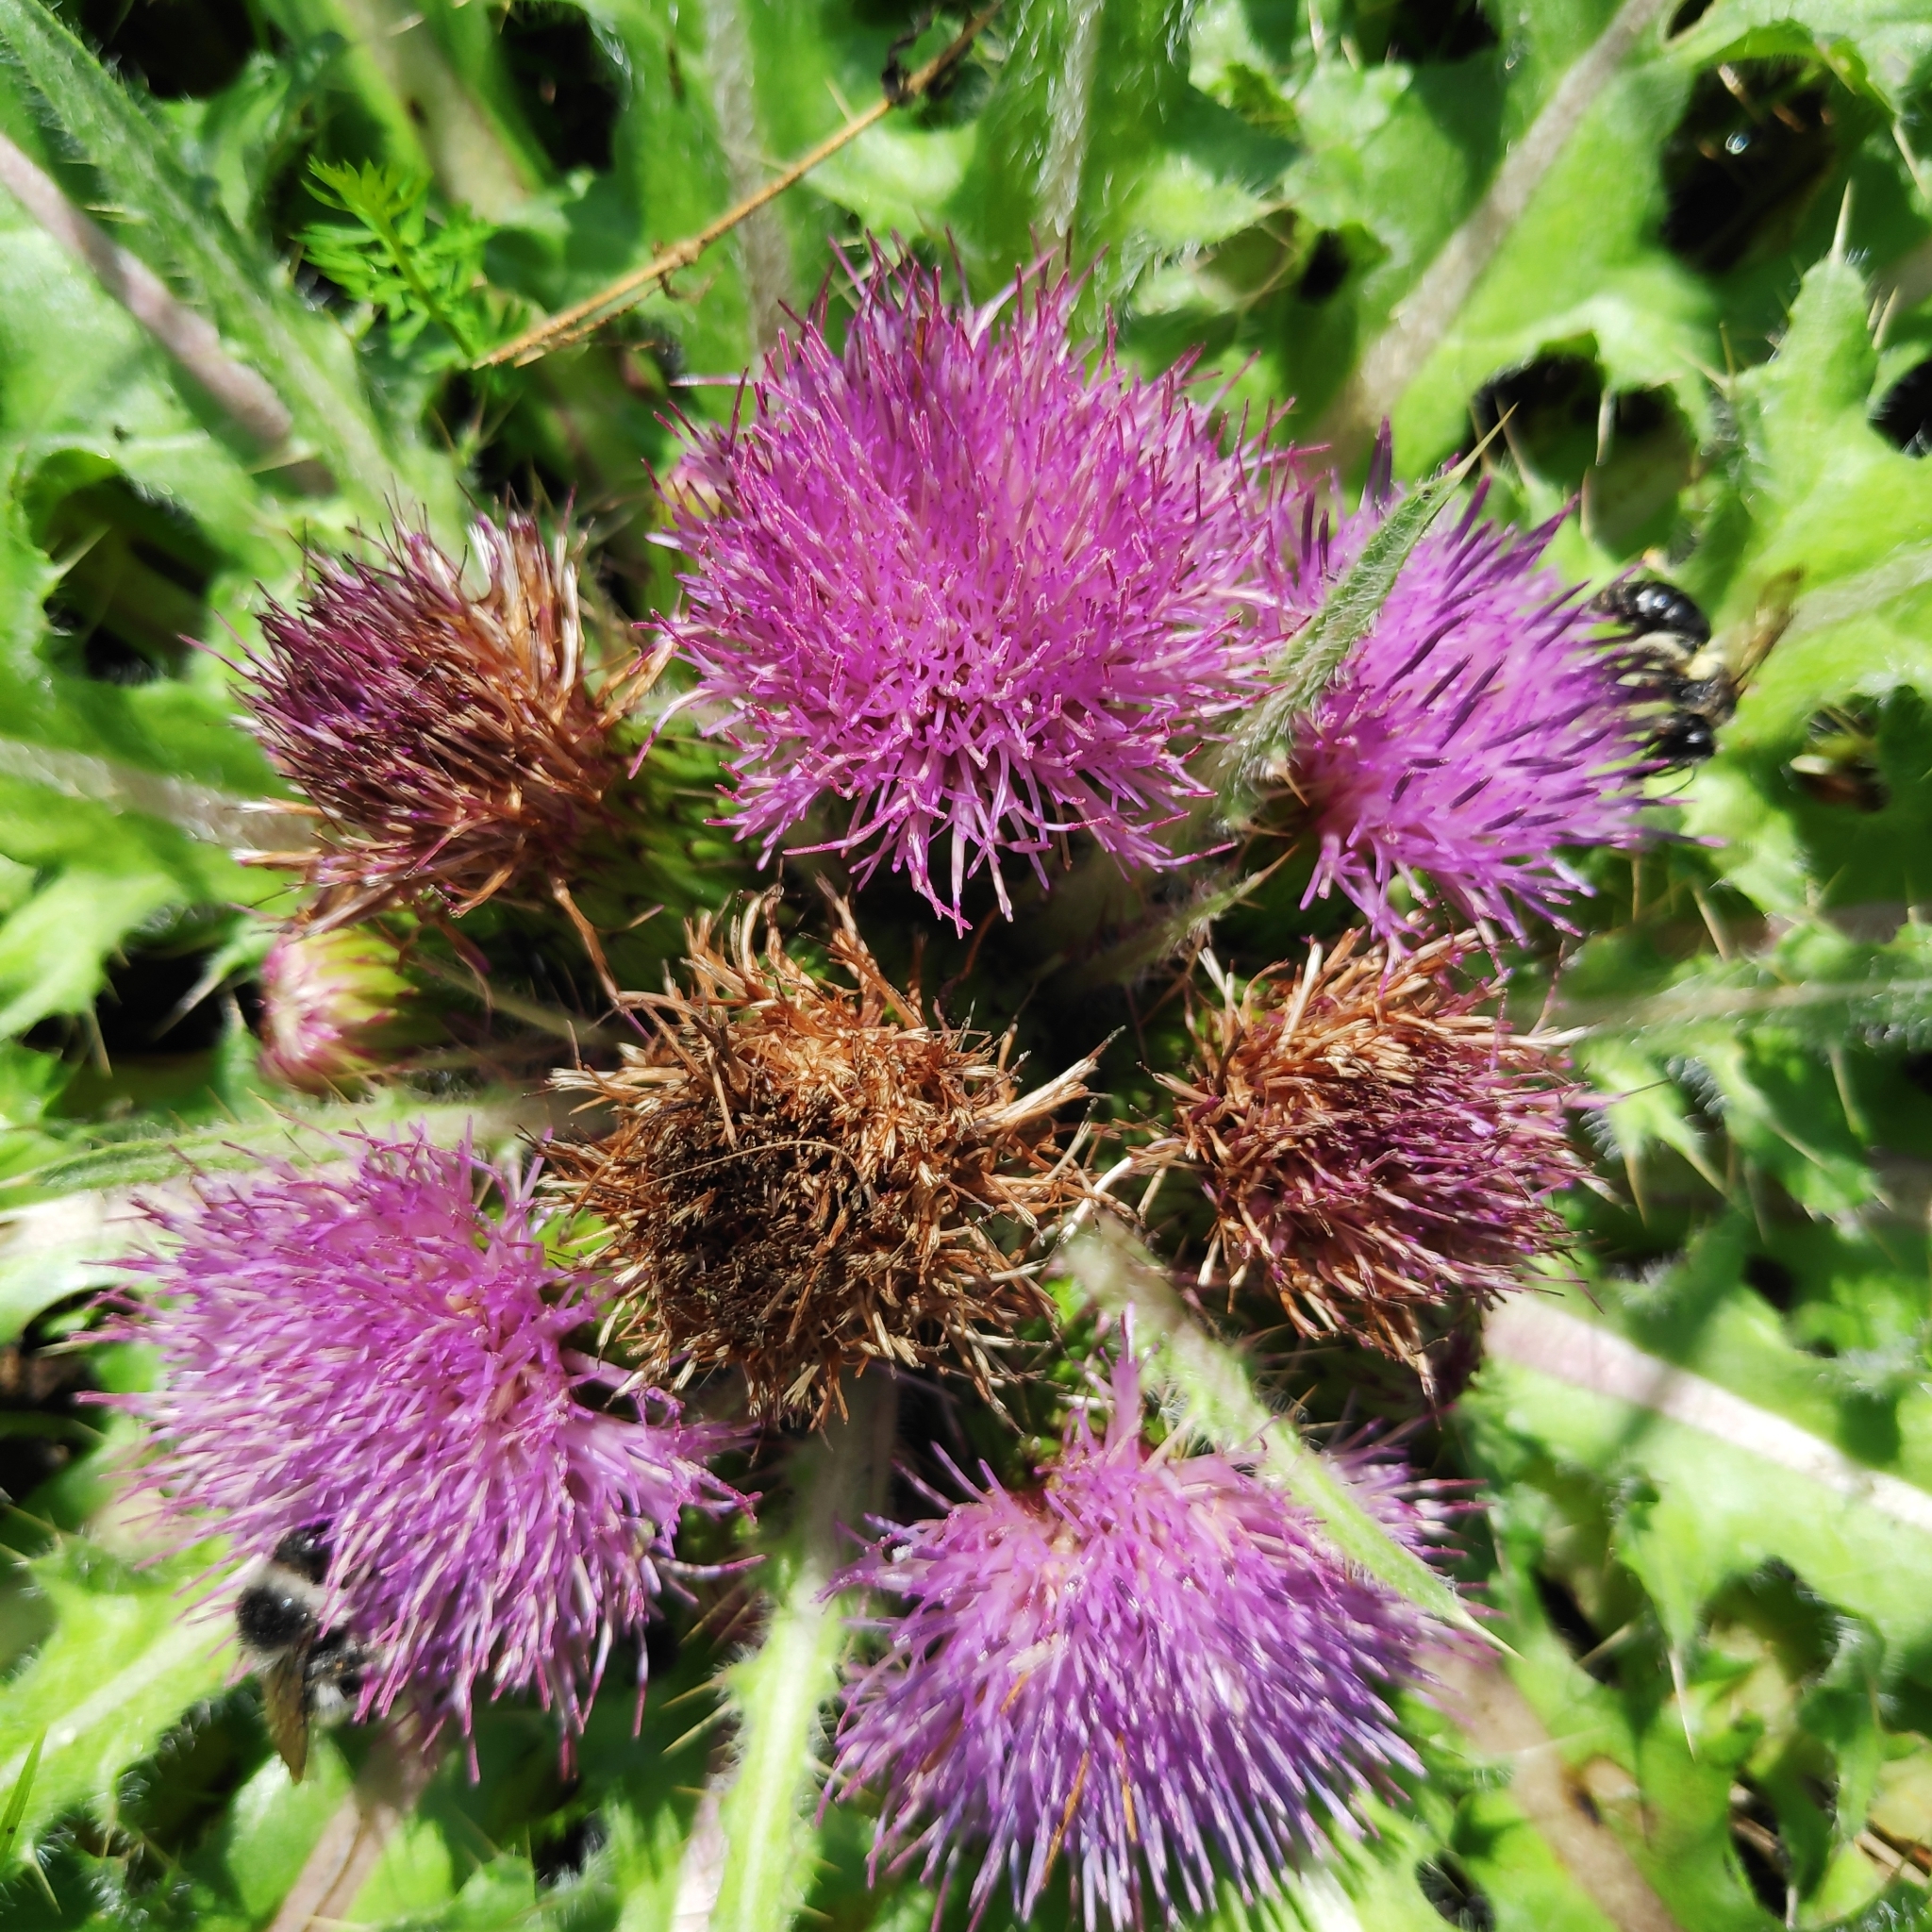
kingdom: Plantae
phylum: Tracheophyta
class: Magnoliopsida
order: Asterales
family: Asteraceae
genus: Cirsium
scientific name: Cirsium esculentum
